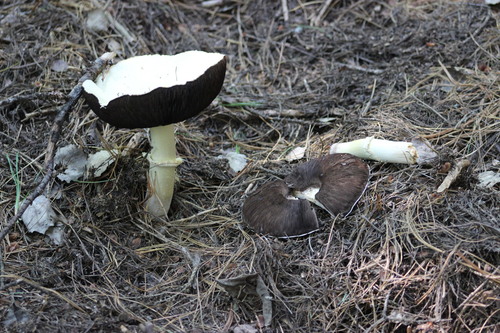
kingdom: Fungi
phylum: Basidiomycota
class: Agaricomycetes
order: Agaricales
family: Agaricaceae
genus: Agaricus
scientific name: Agaricus
